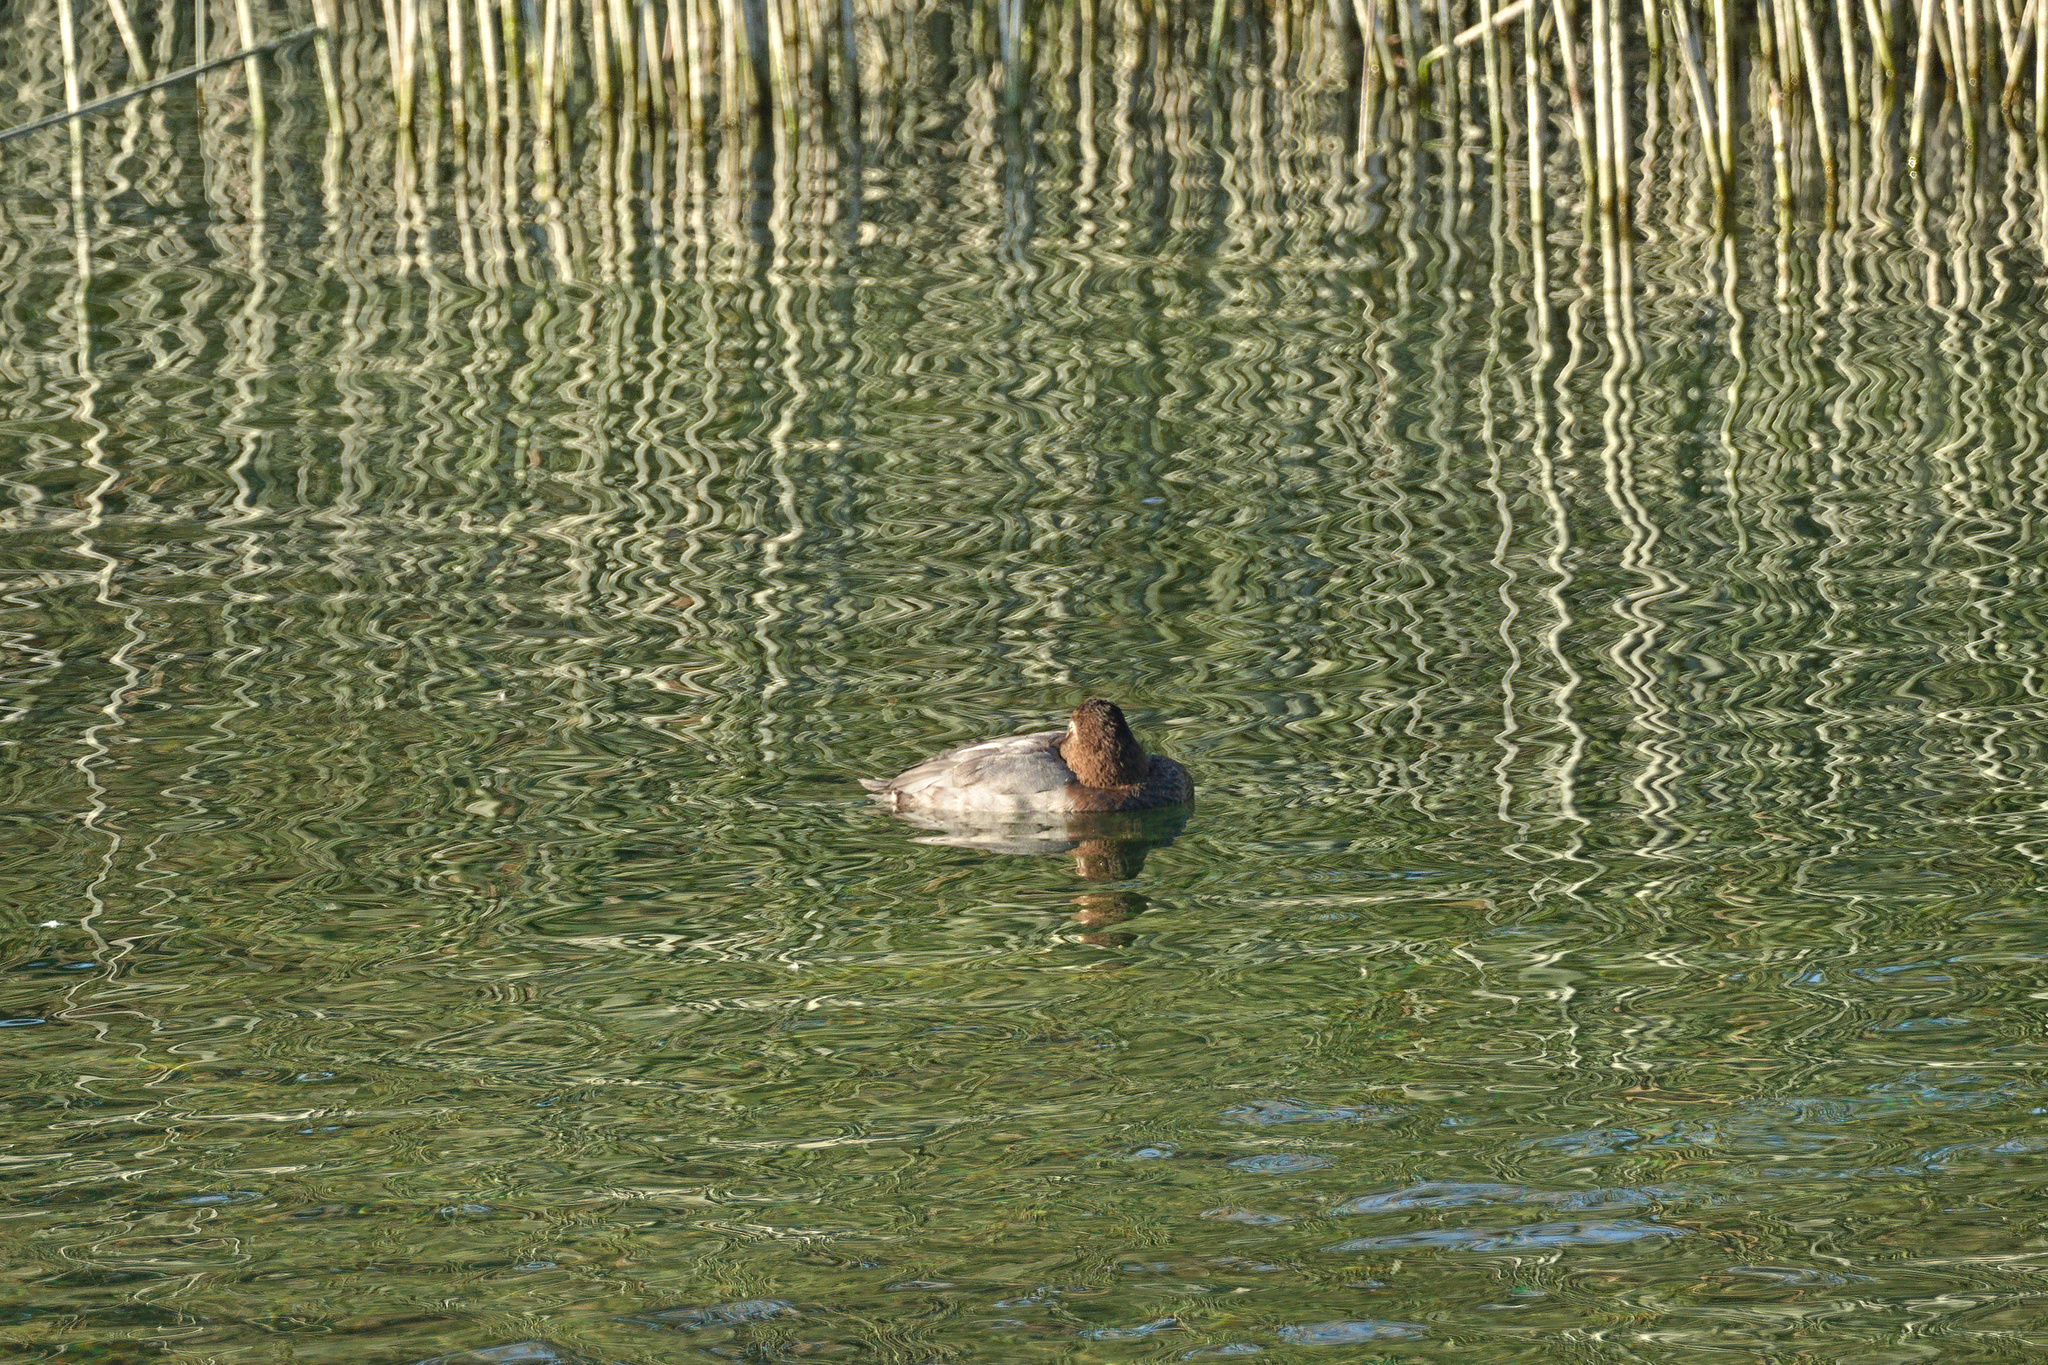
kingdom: Animalia
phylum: Chordata
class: Aves
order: Anseriformes
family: Anatidae
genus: Aythya
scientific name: Aythya ferina
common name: Common pochard
